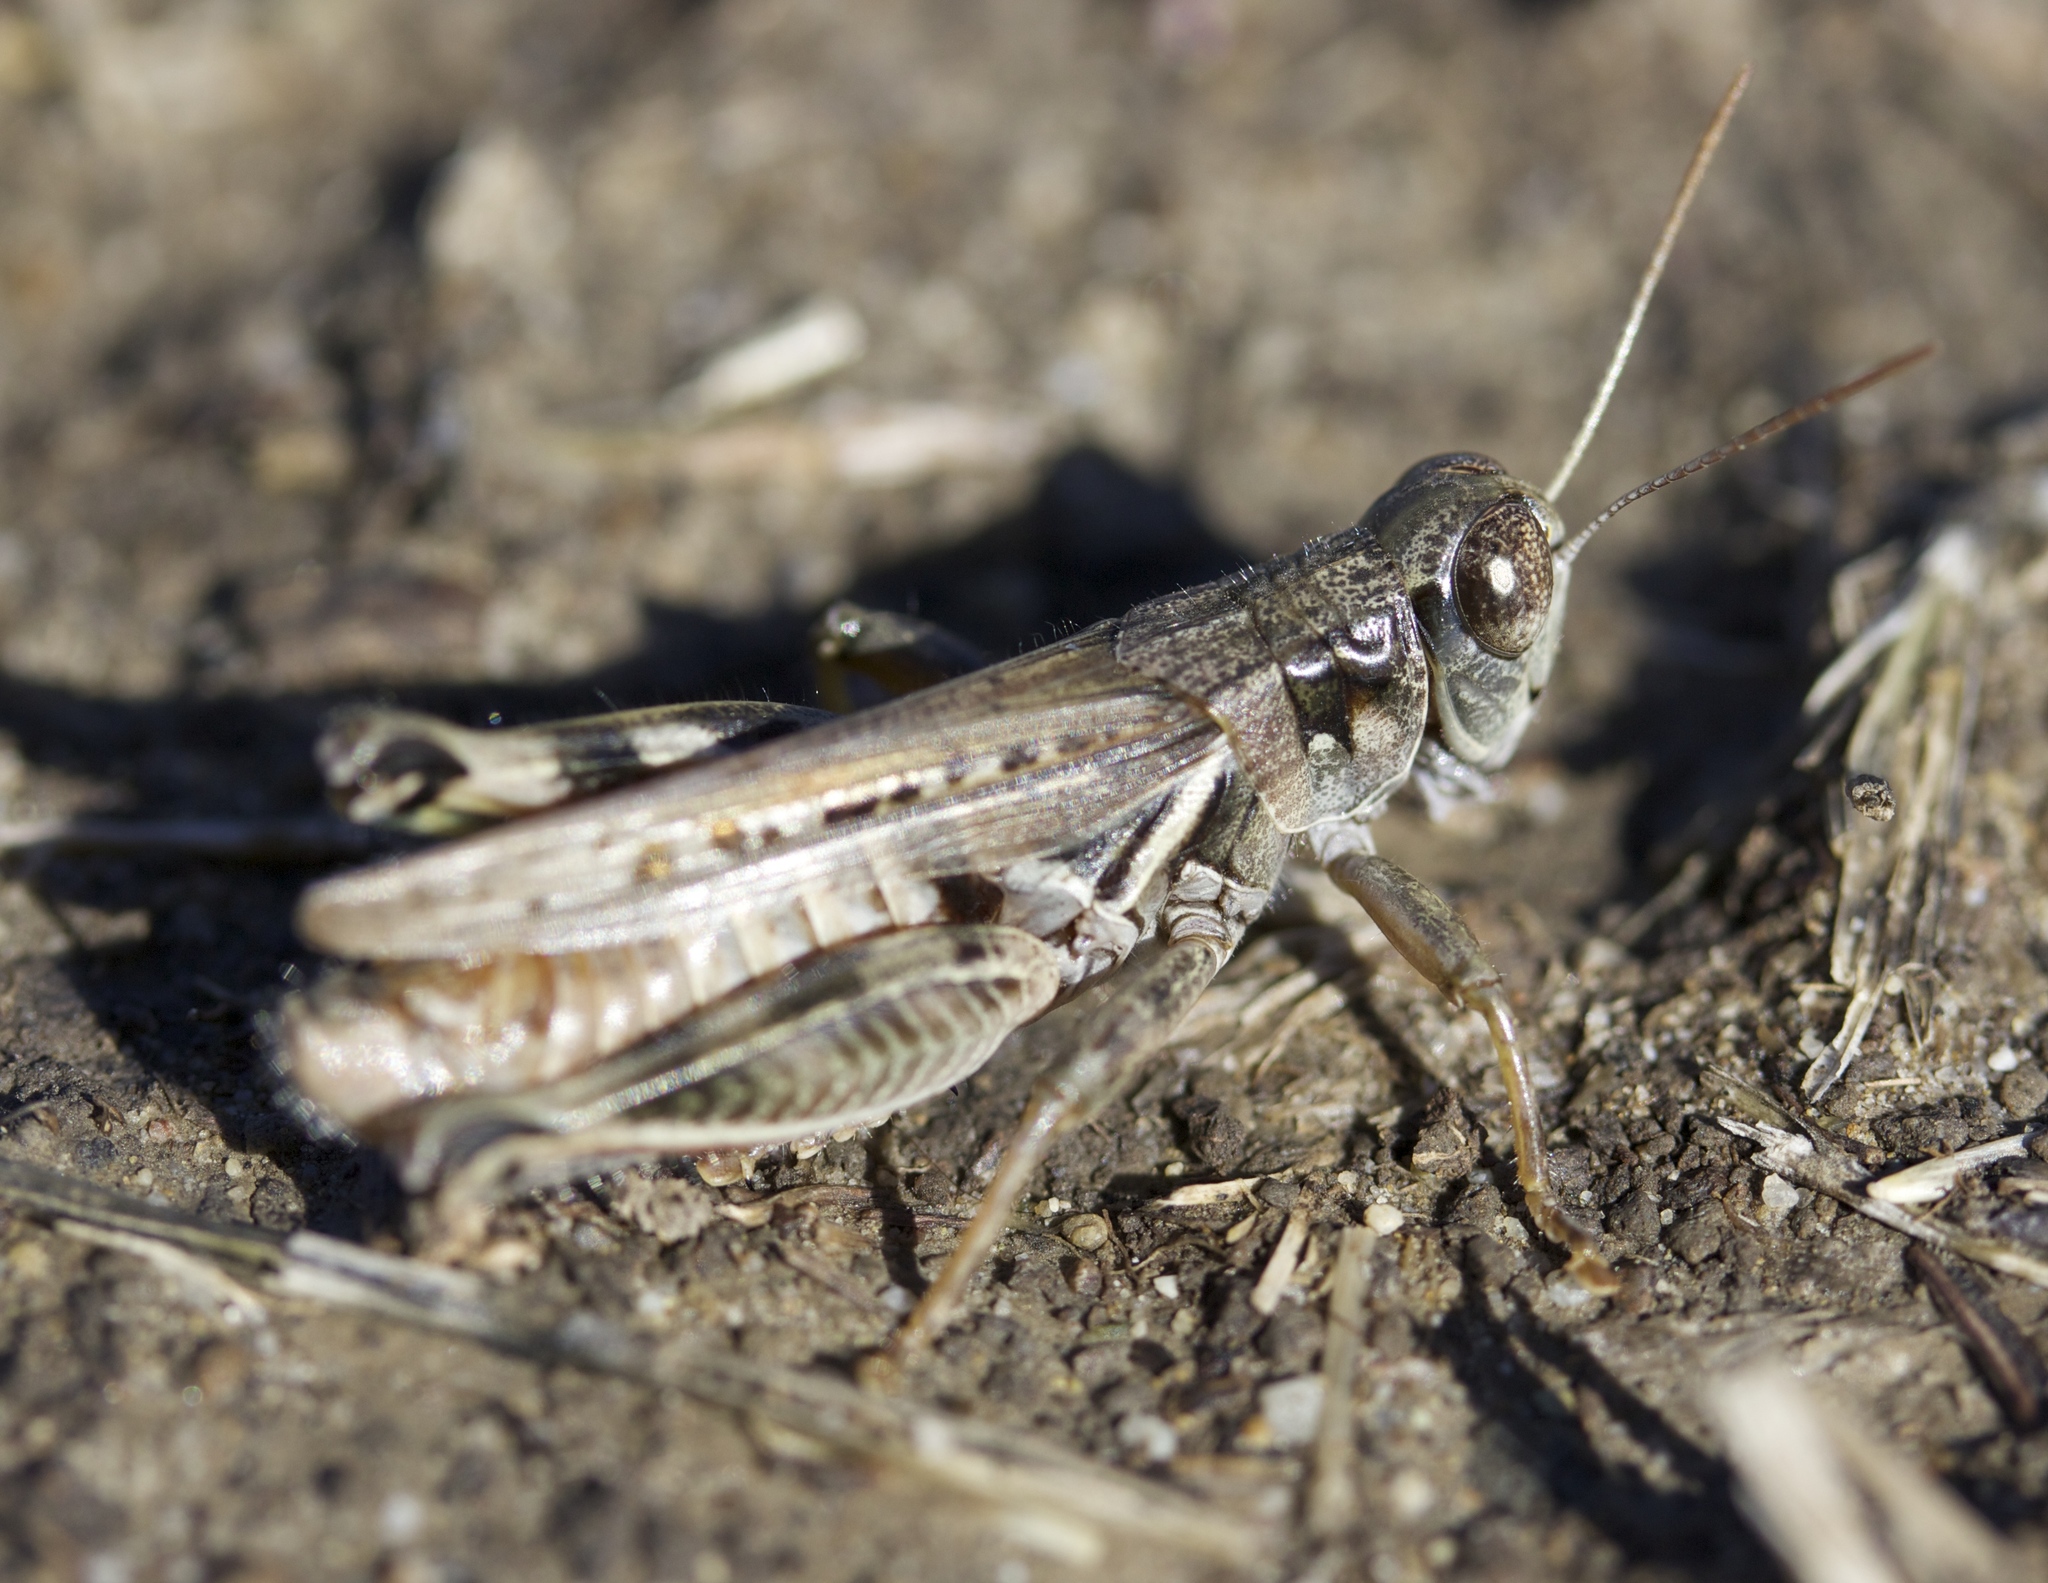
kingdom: Animalia
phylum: Arthropoda
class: Insecta
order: Orthoptera
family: Acrididae
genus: Melanoplus
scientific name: Melanoplus devastator
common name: Devastating grasshopper
